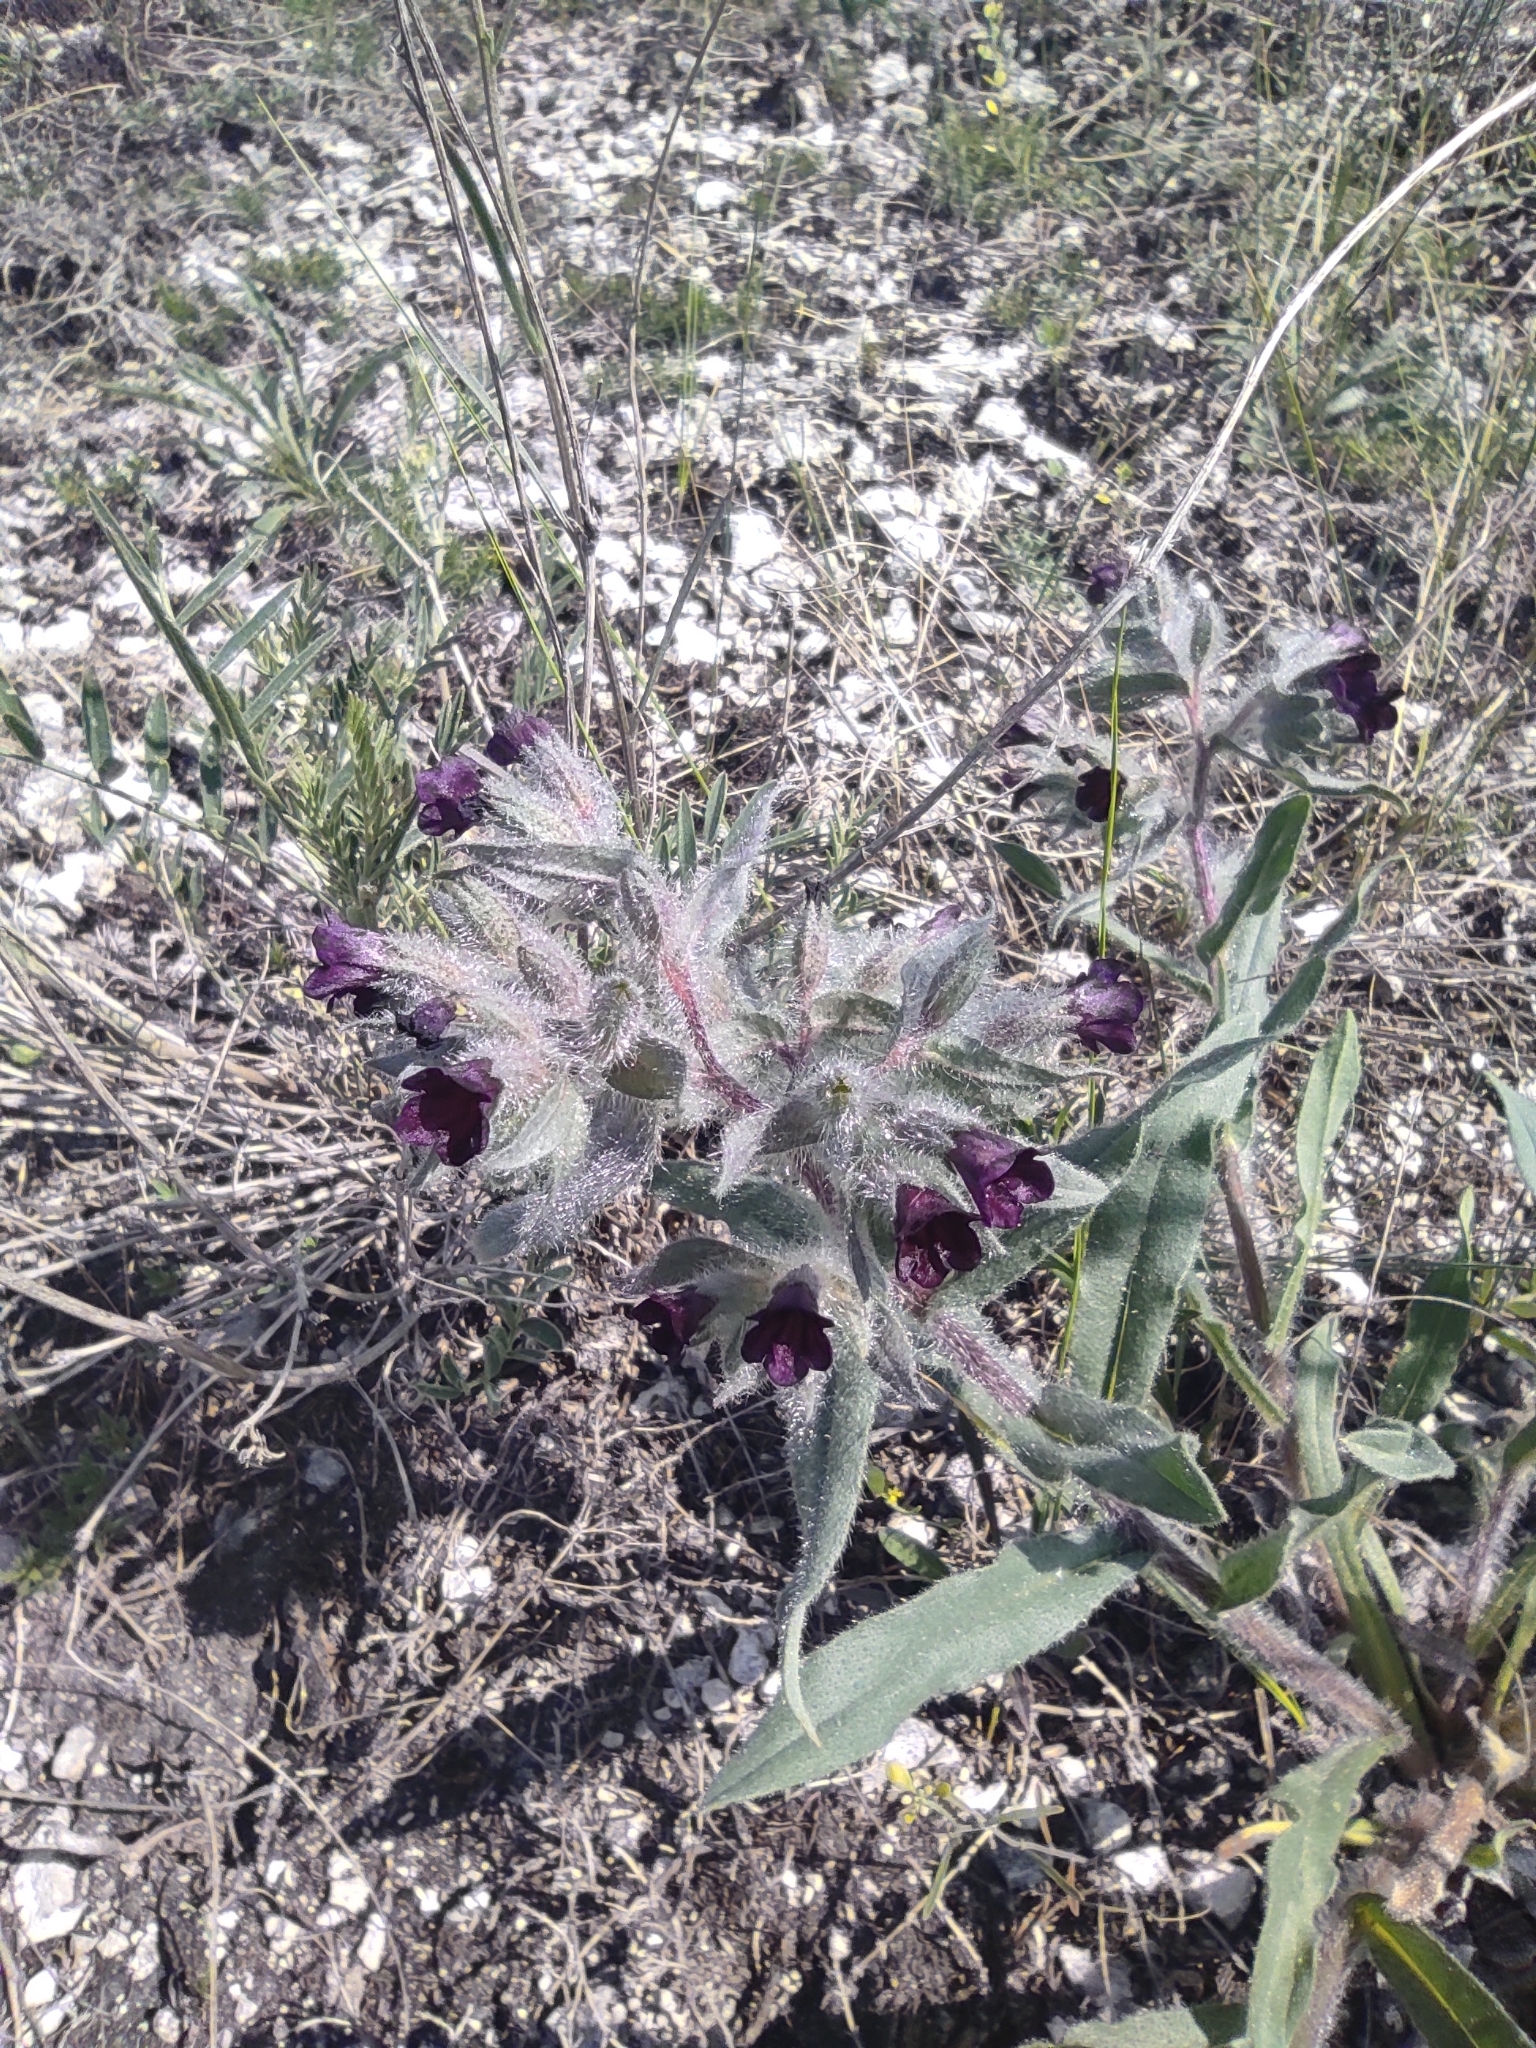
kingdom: Plantae
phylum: Tracheophyta
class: Magnoliopsida
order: Boraginales
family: Boraginaceae
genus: Nonea
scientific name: Nonea pulla
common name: Brown nonea
